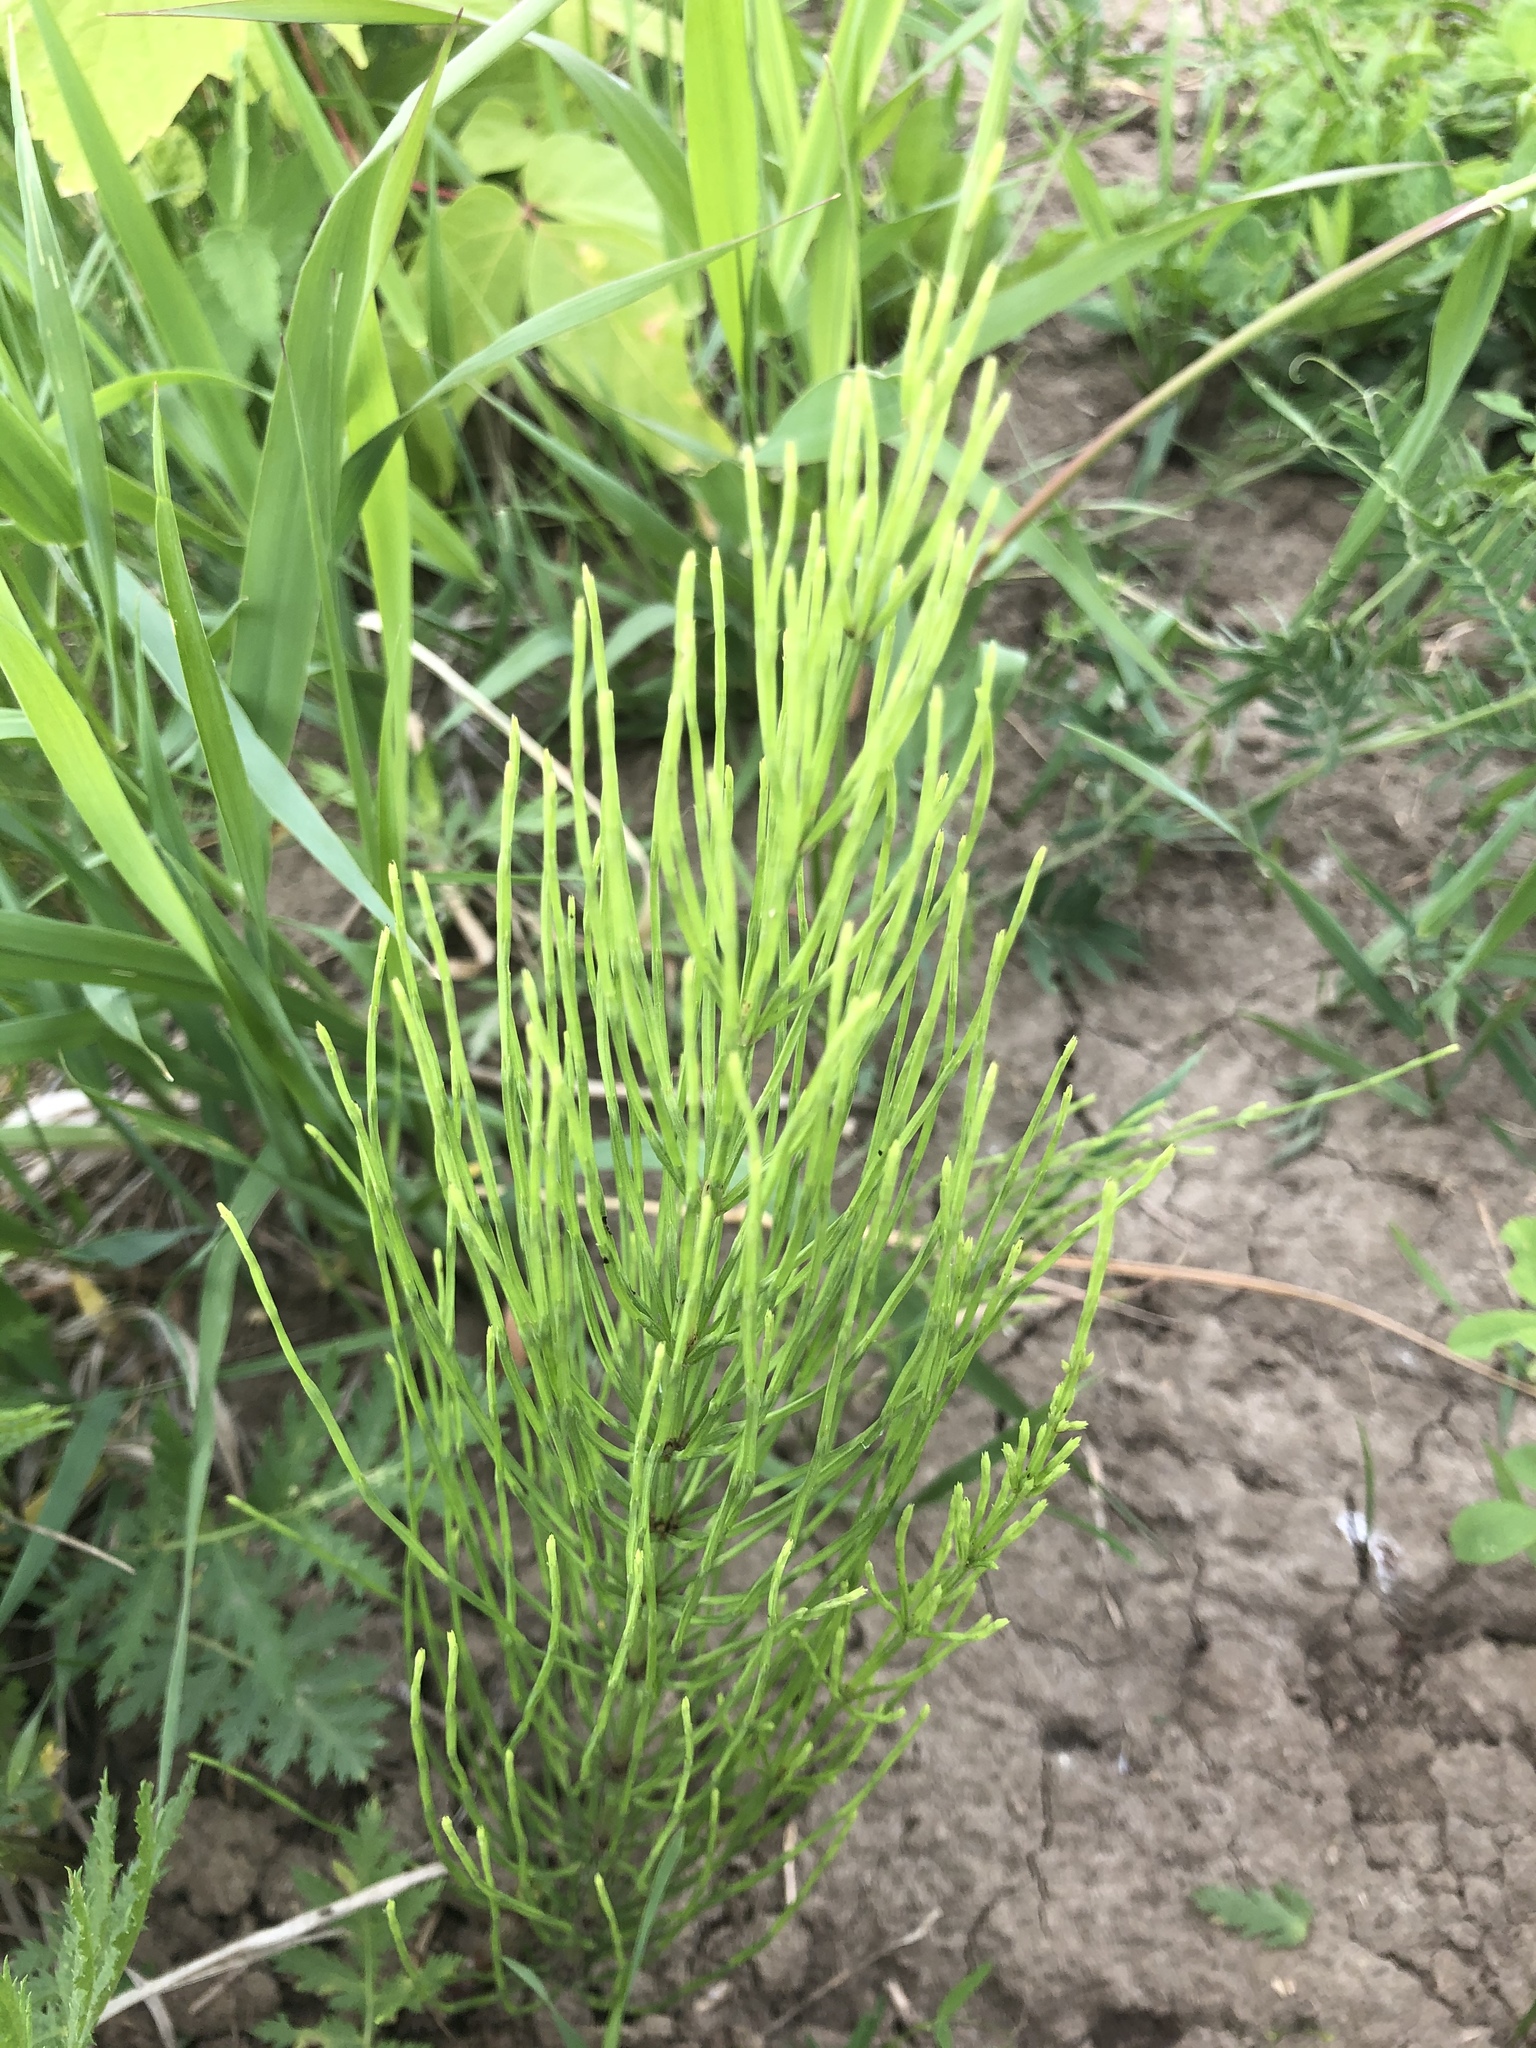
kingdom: Plantae
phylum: Tracheophyta
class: Polypodiopsida
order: Equisetales
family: Equisetaceae
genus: Equisetum
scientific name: Equisetum arvense
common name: Field horsetail
